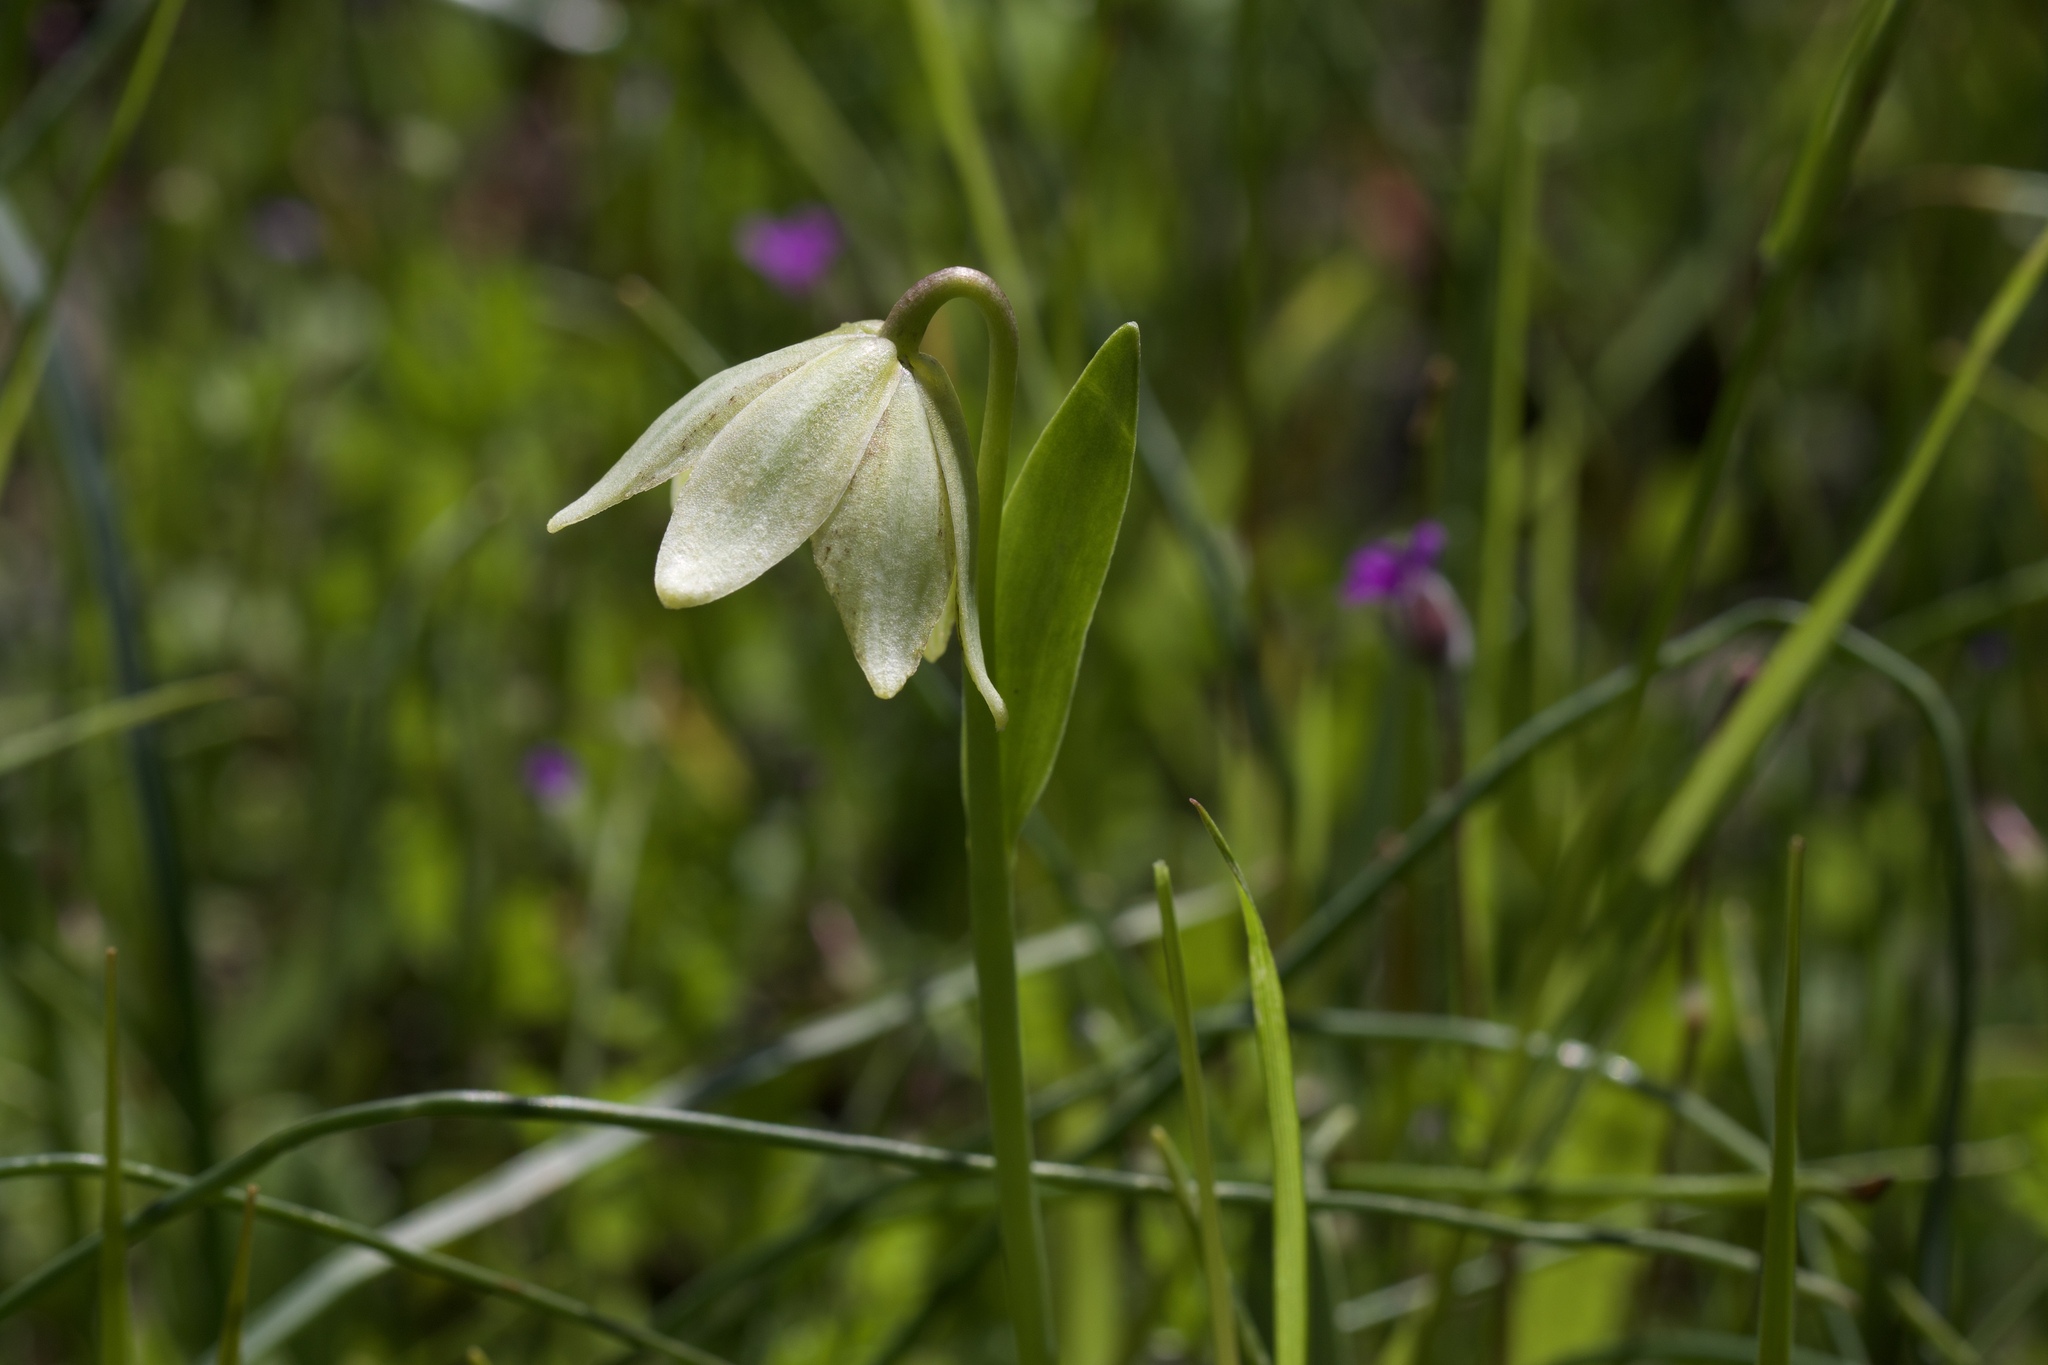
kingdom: Plantae
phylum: Tracheophyta
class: Liliopsida
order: Liliales
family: Liliaceae
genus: Fritillaria
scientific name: Fritillaria agrestis
